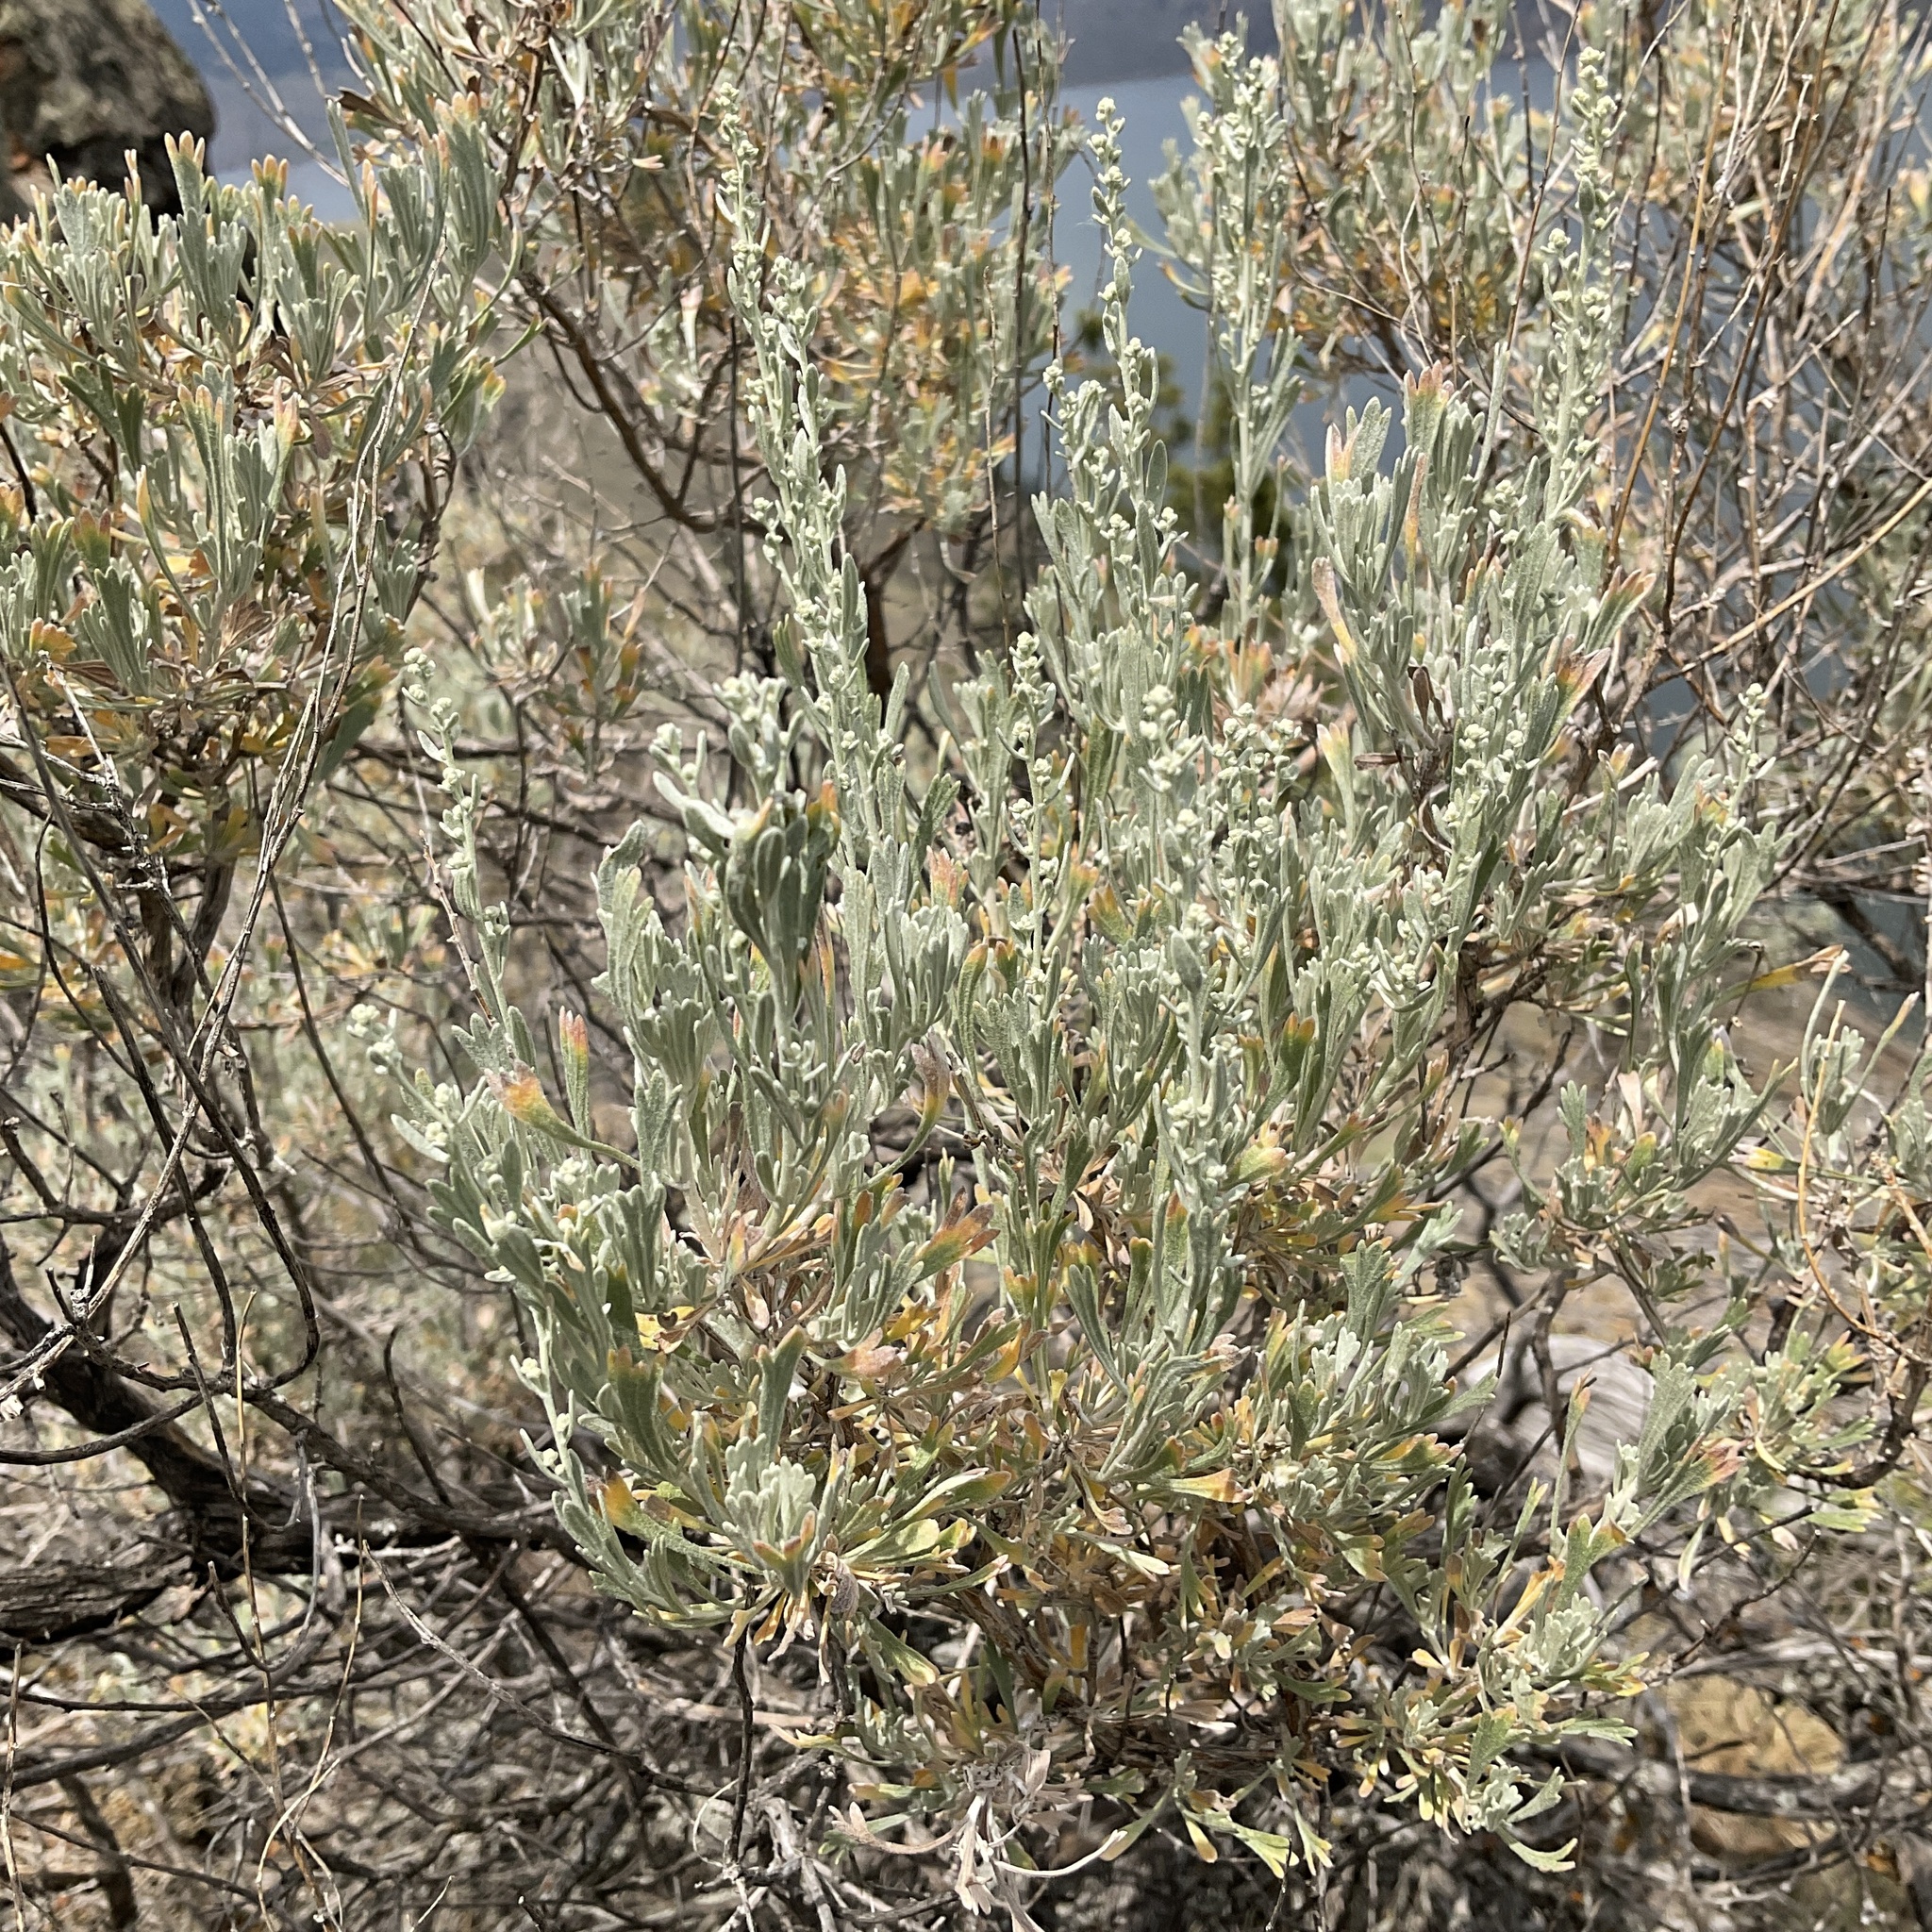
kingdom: Plantae
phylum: Tracheophyta
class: Magnoliopsida
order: Asterales
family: Asteraceae
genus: Artemisia
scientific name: Artemisia tridentata
